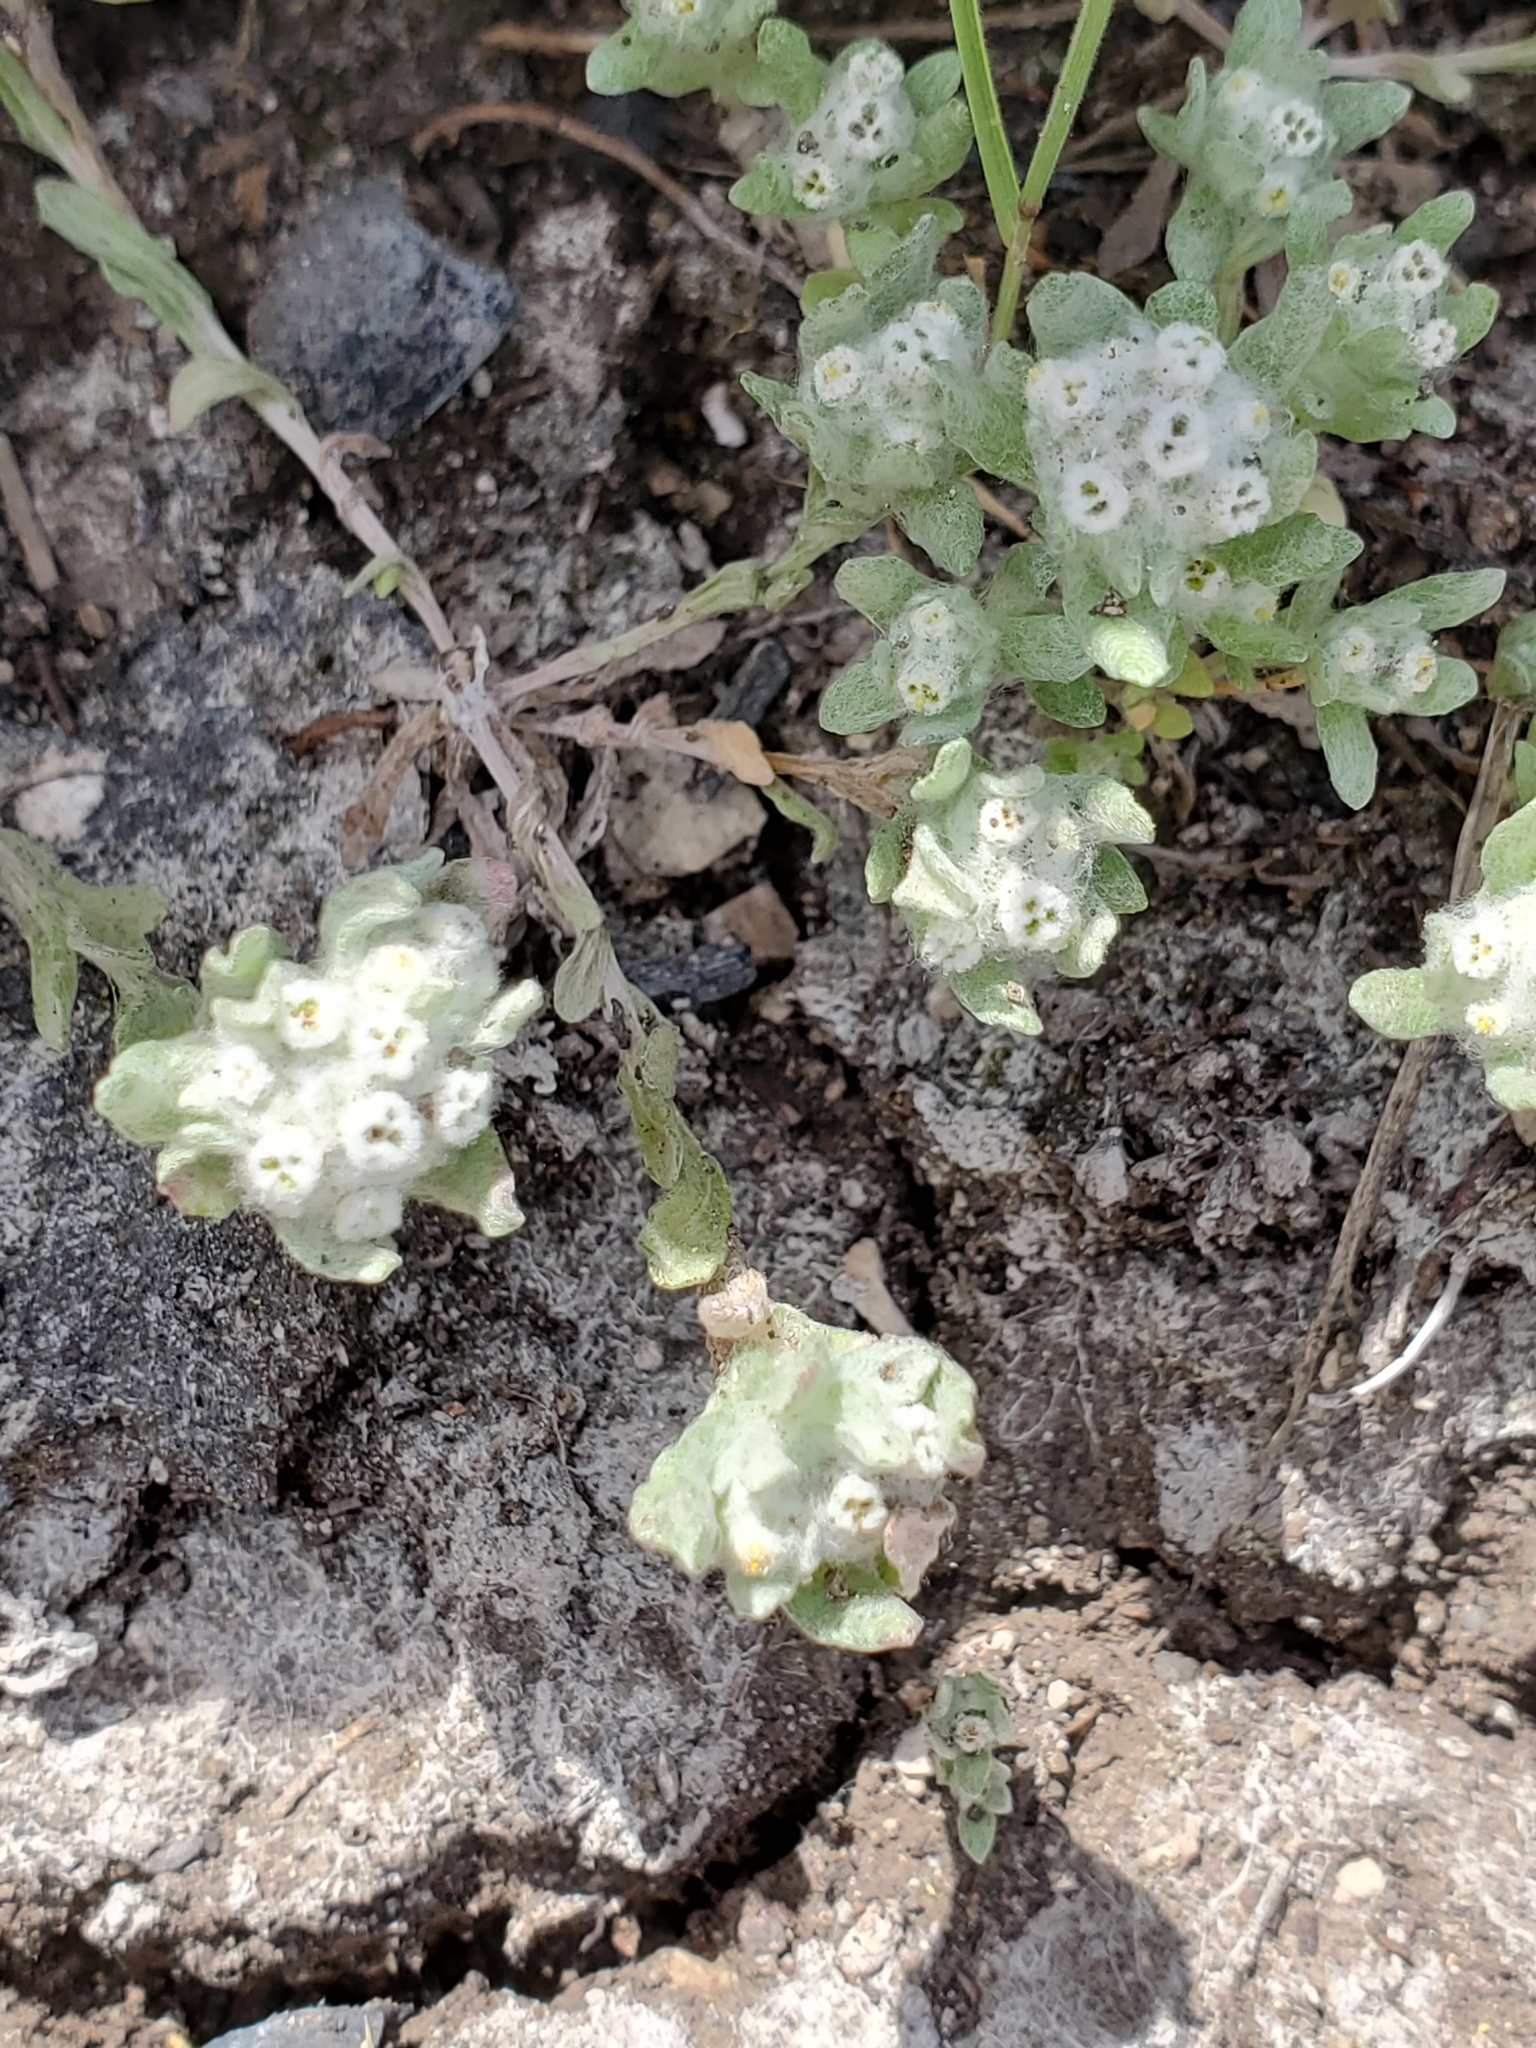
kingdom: Plantae
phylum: Tracheophyta
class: Magnoliopsida
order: Asterales
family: Asteraceae
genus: Diaperia
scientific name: Diaperia verna
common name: Many-stem rabbit-tobacco
